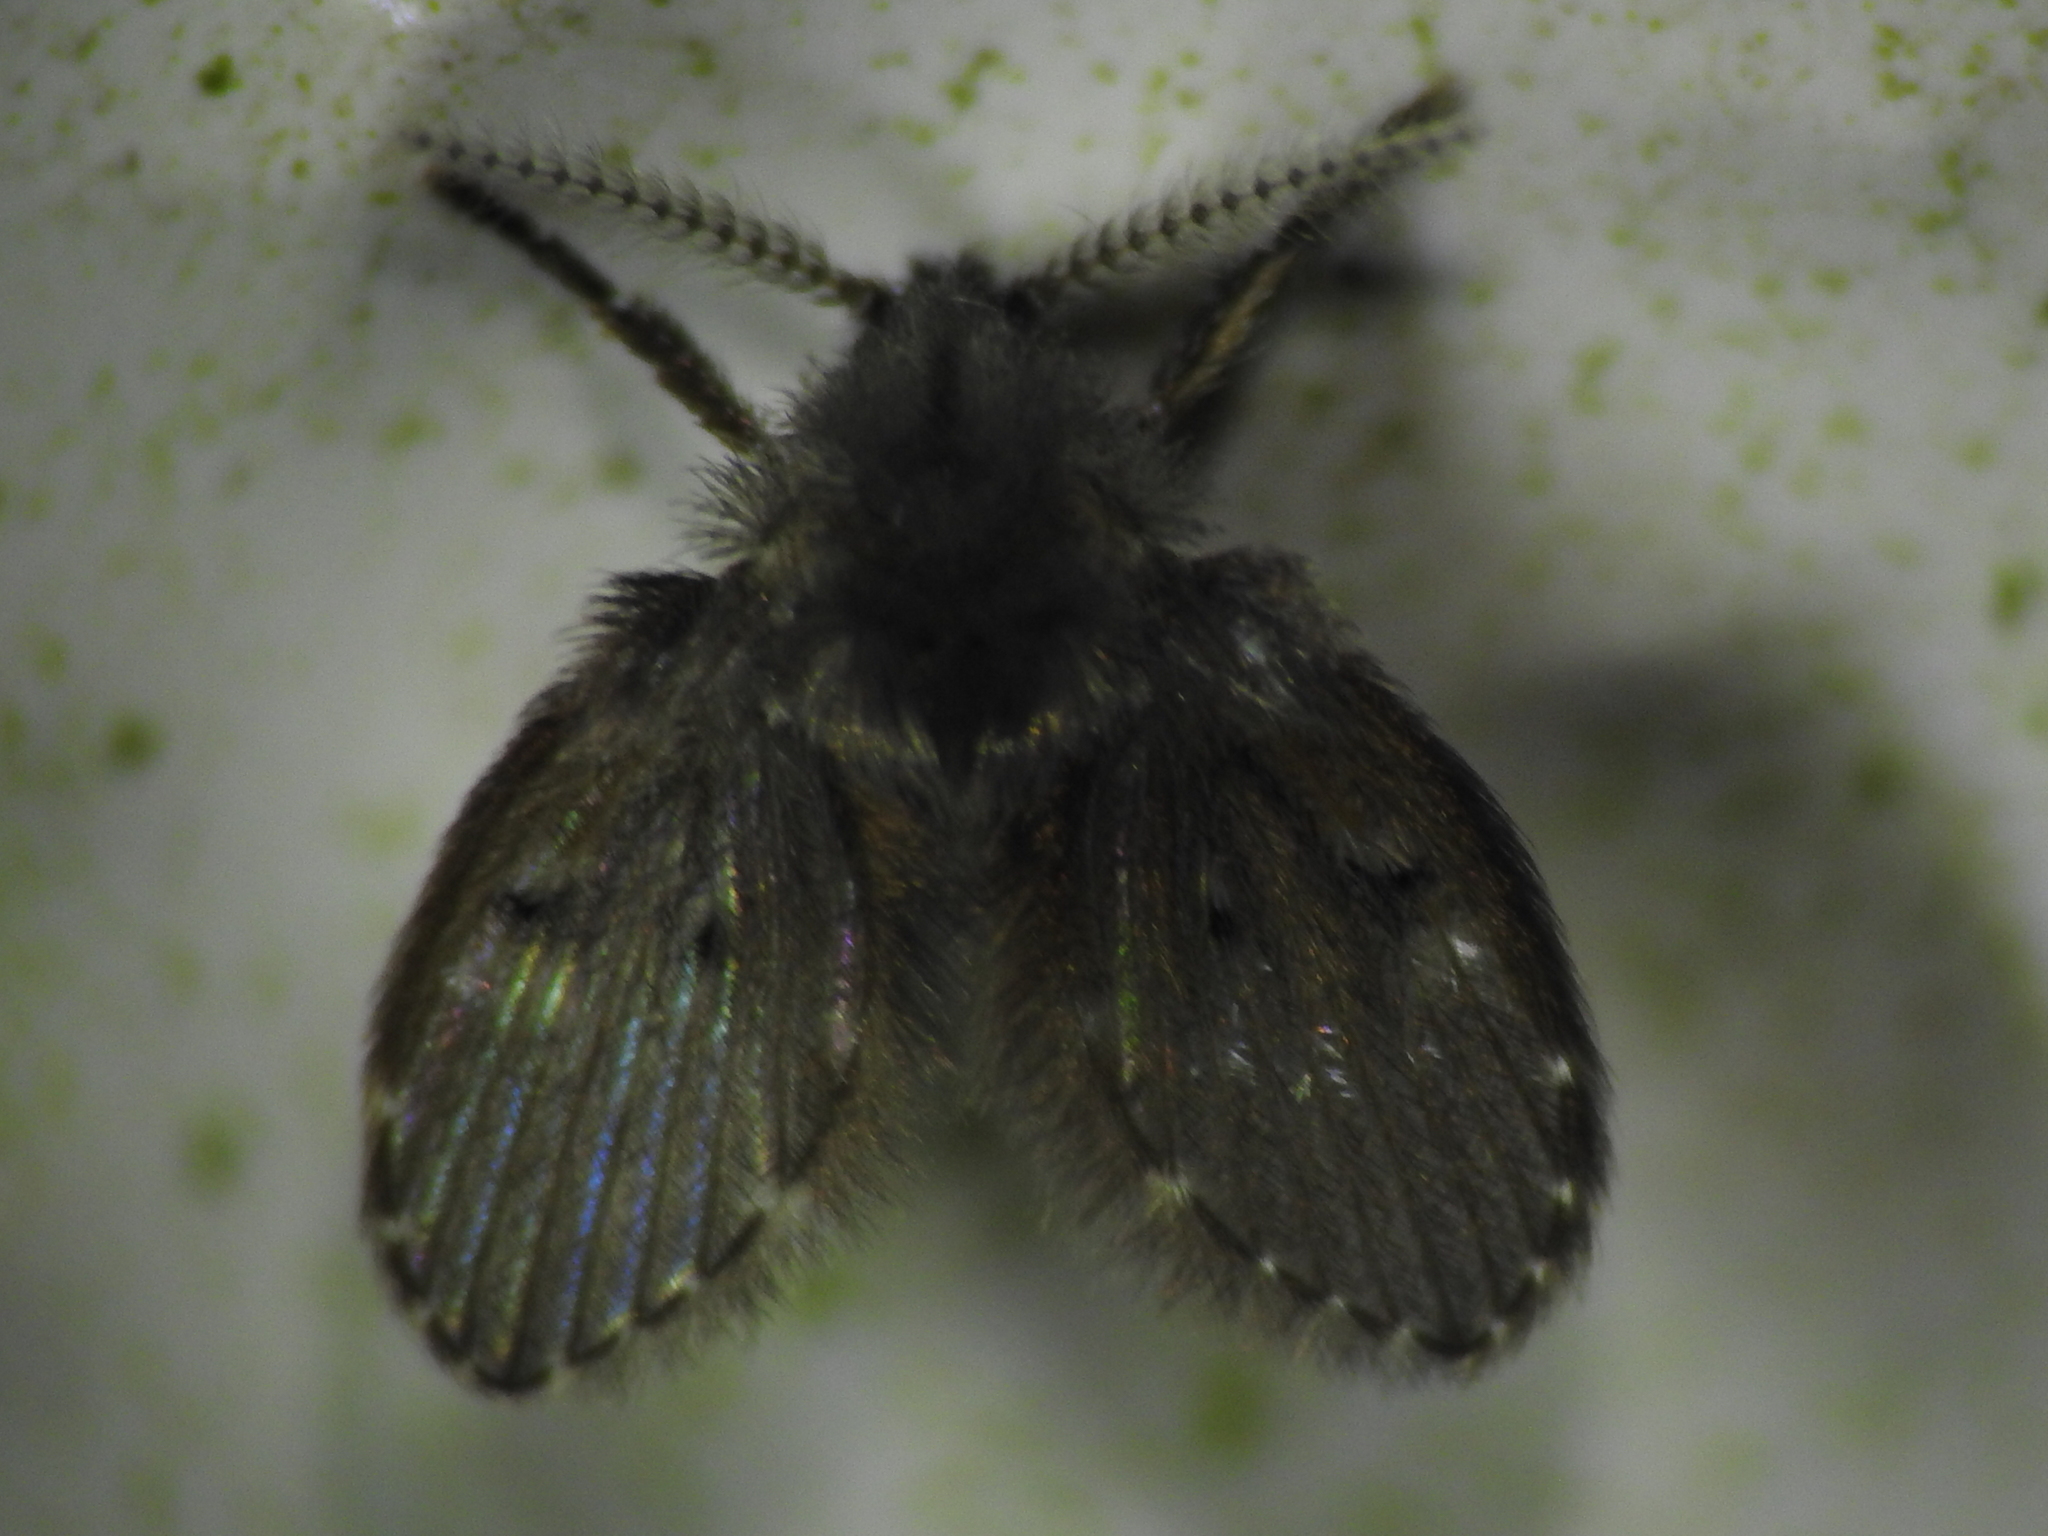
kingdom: Animalia
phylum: Arthropoda
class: Insecta
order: Diptera
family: Psychodidae
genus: Clogmia
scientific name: Clogmia albipunctatus
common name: White-spotted moth fly
